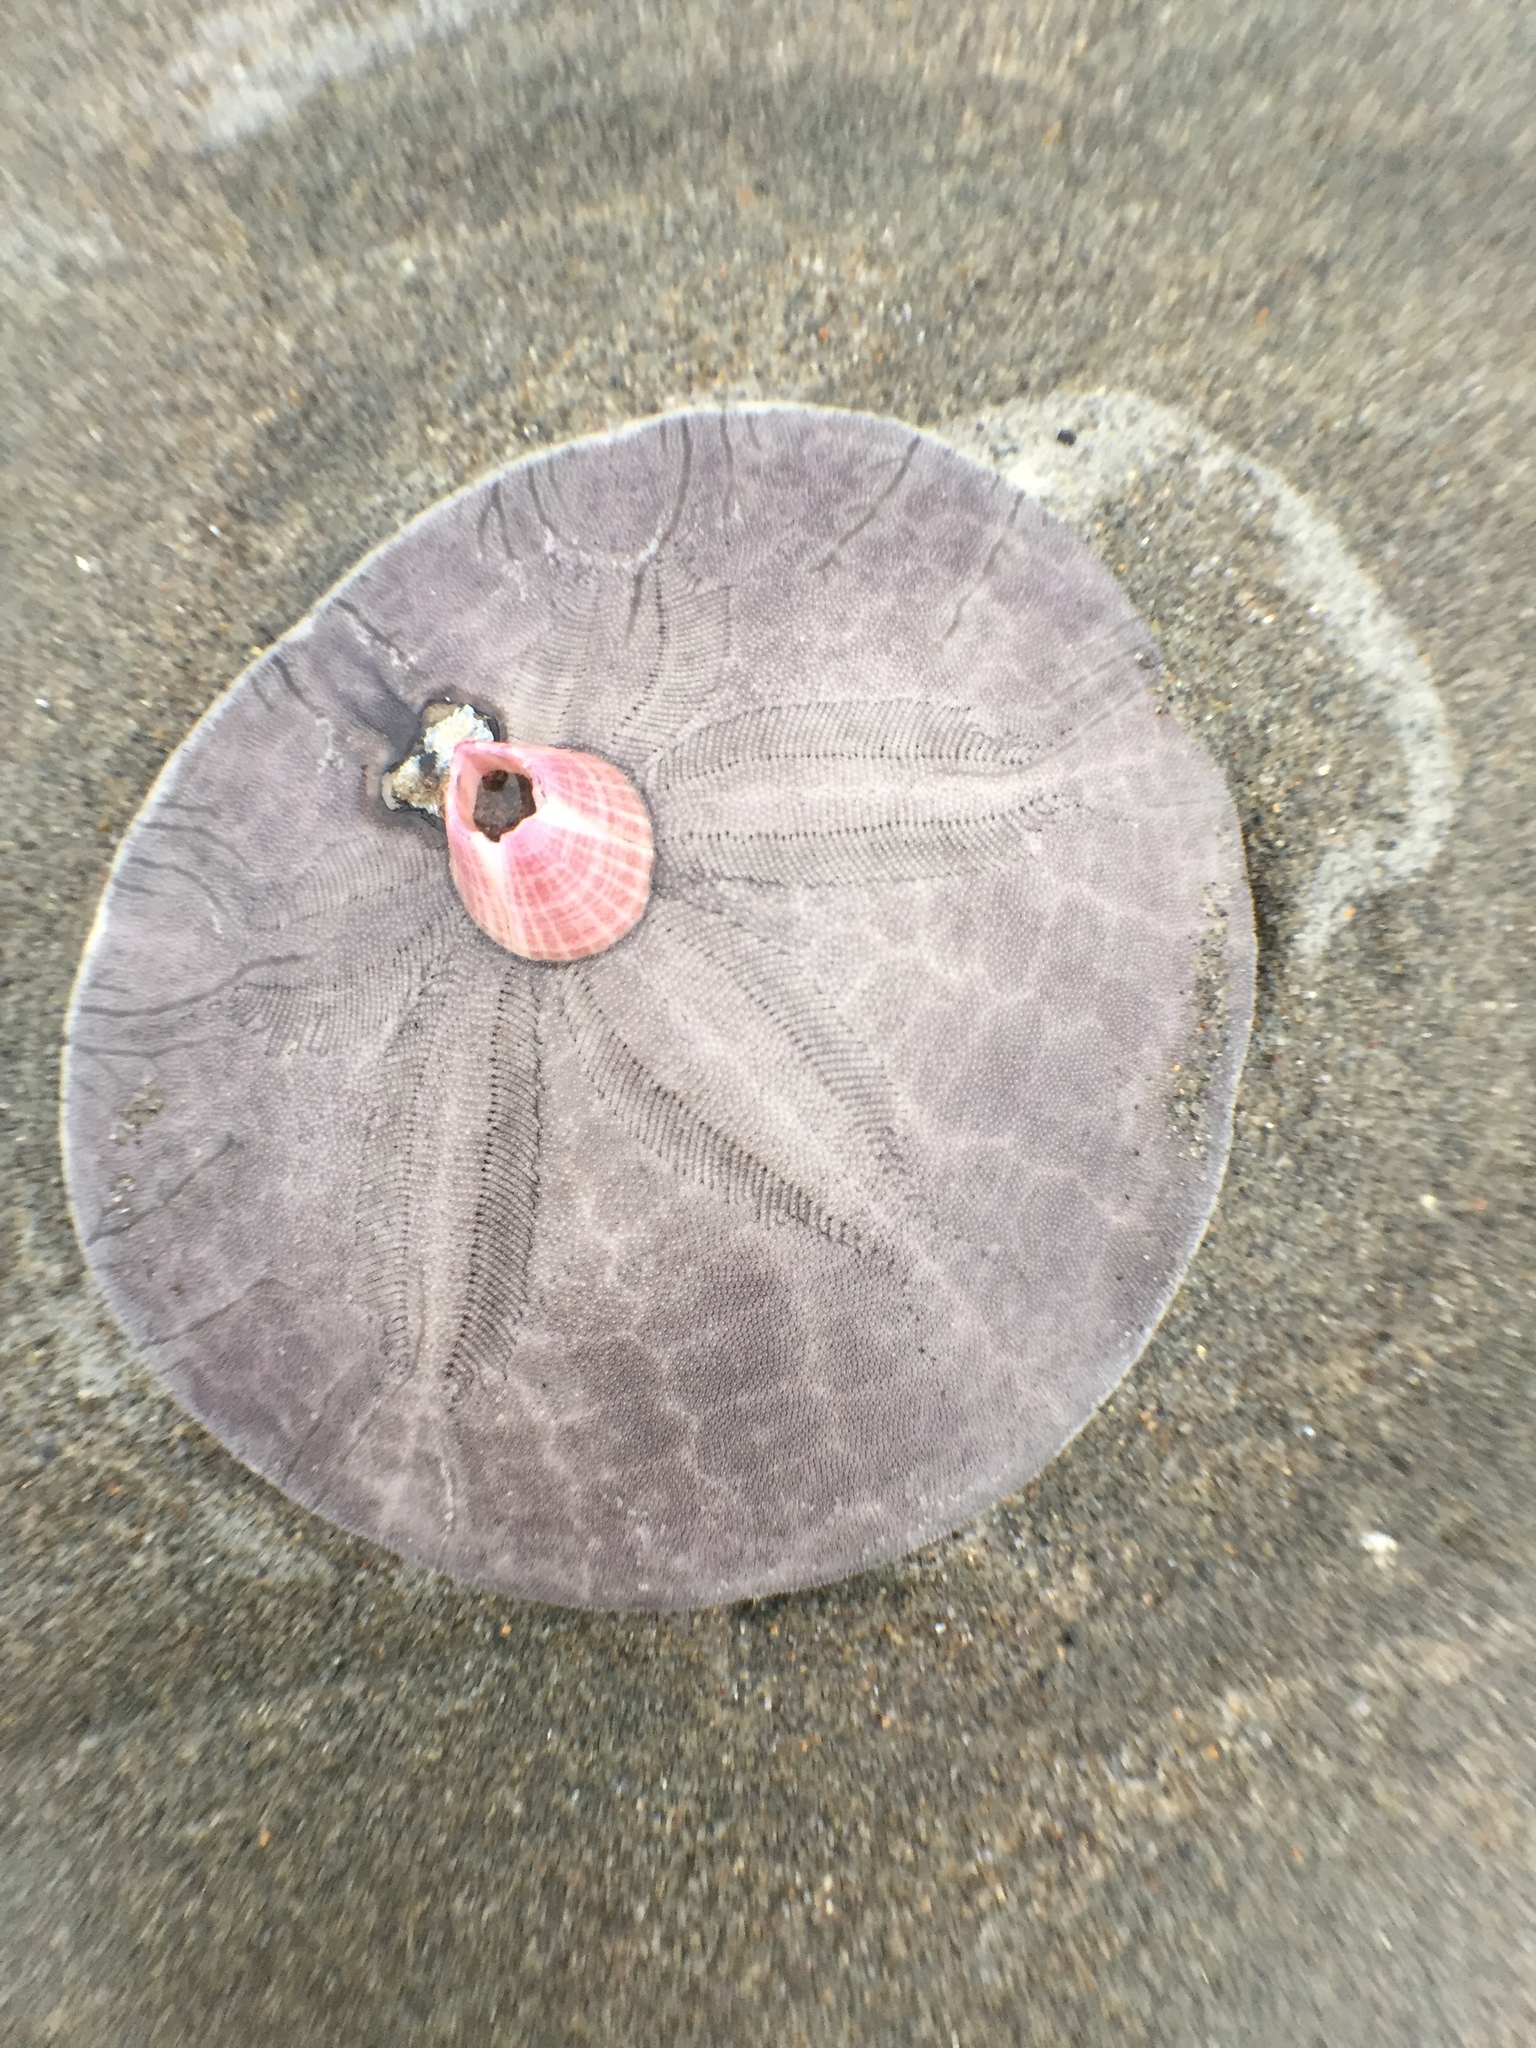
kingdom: Animalia
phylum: Echinodermata
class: Echinoidea
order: Echinolampadacea
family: Dendrasteridae
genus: Dendraster
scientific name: Dendraster excentricus
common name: Eccentric sand dollar sea urchin
